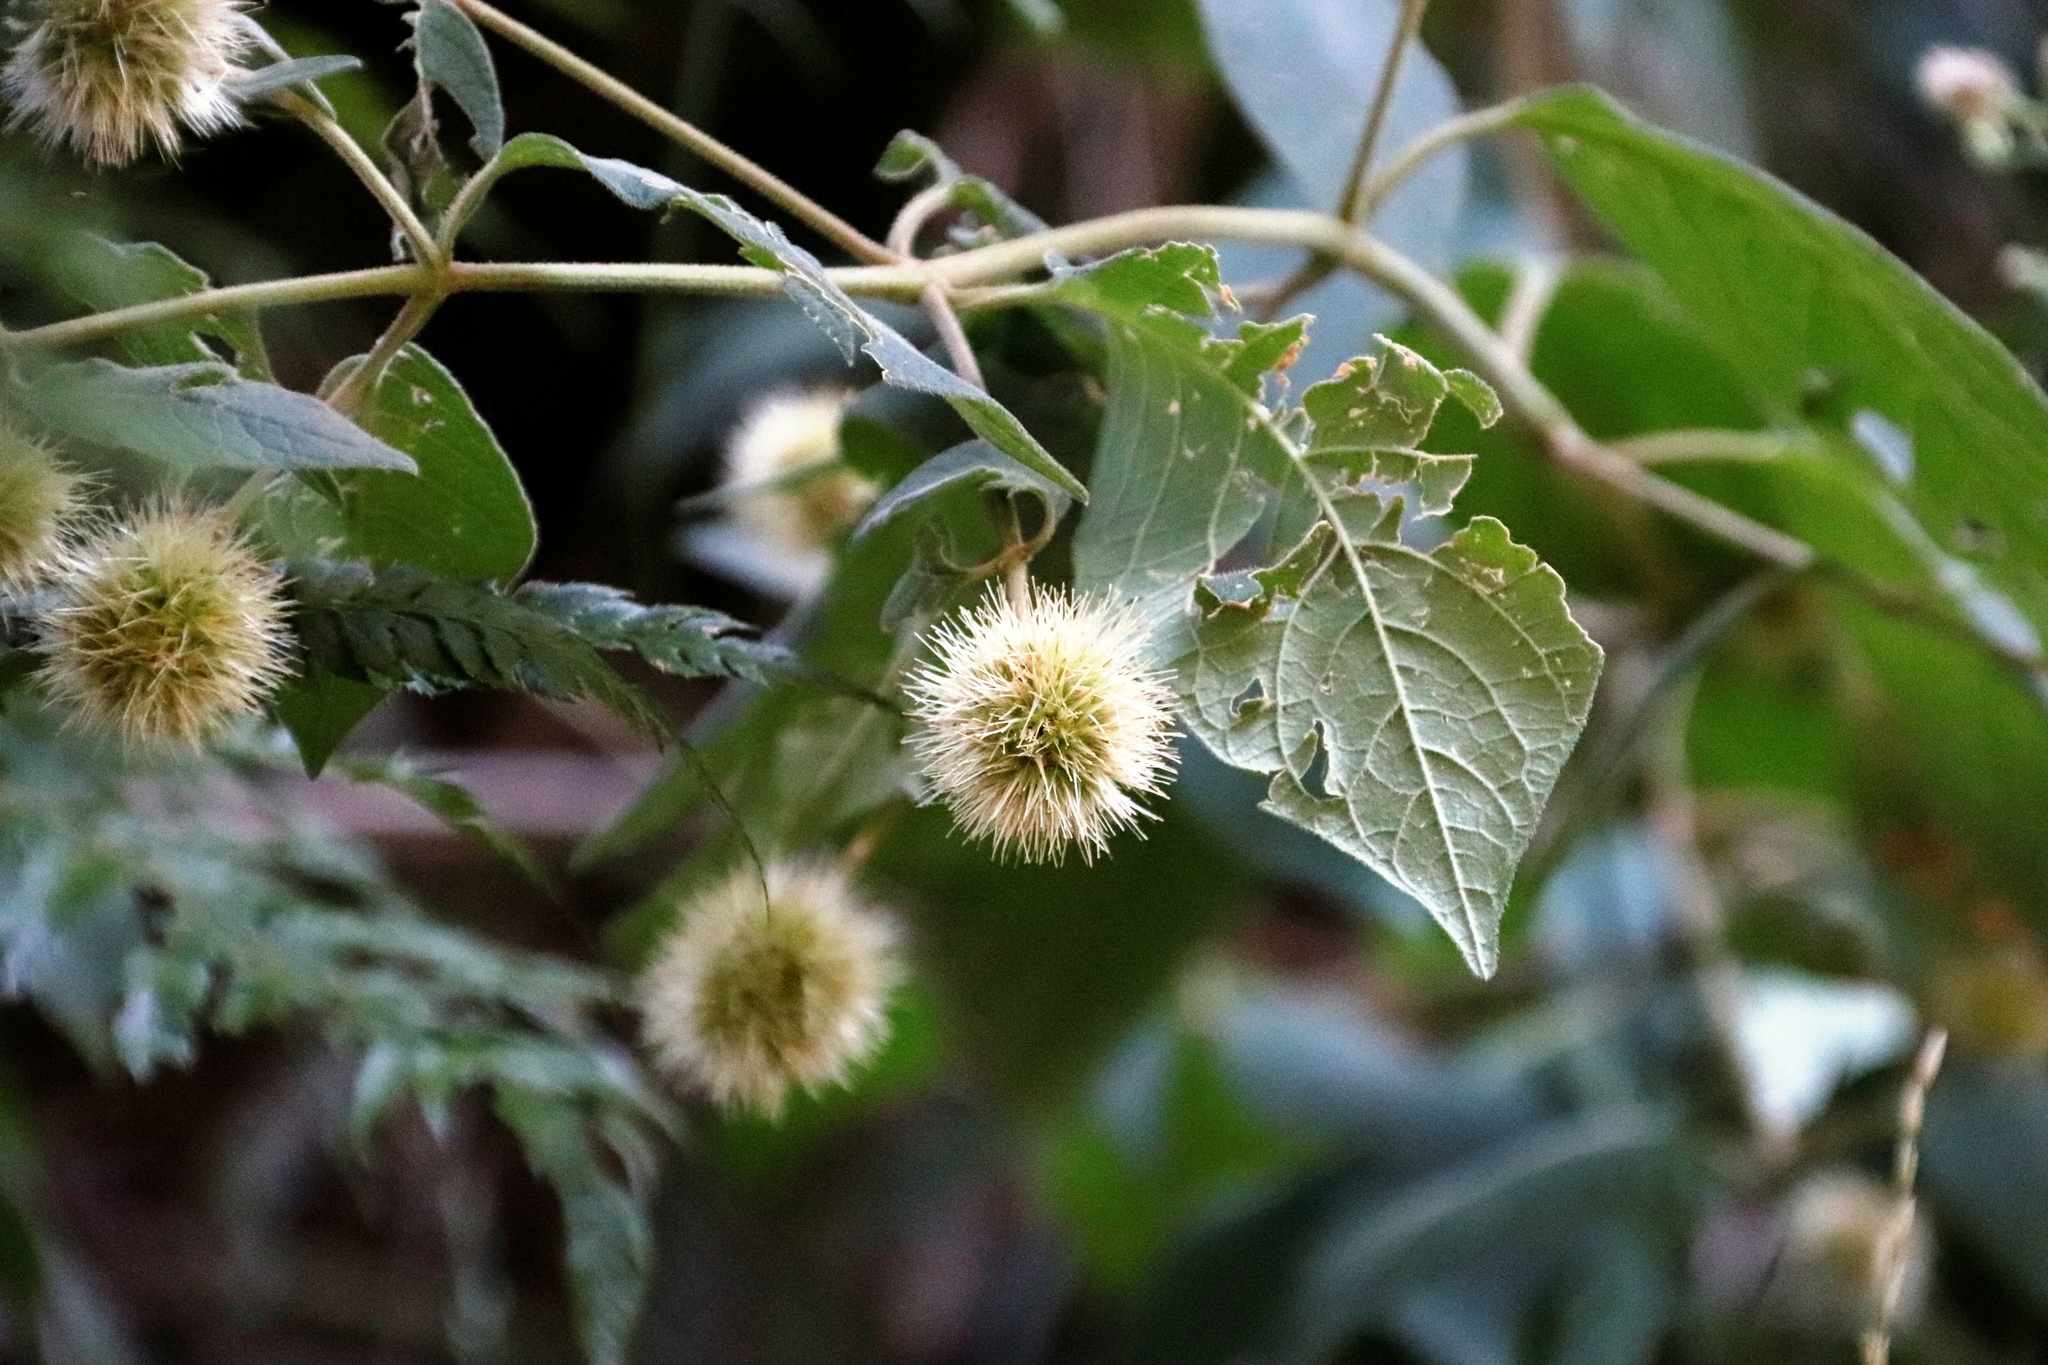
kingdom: Plantae
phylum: Tracheophyta
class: Magnoliopsida
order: Caryophyllales
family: Amaranthaceae
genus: Cyathula
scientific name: Cyathula uncinulata
